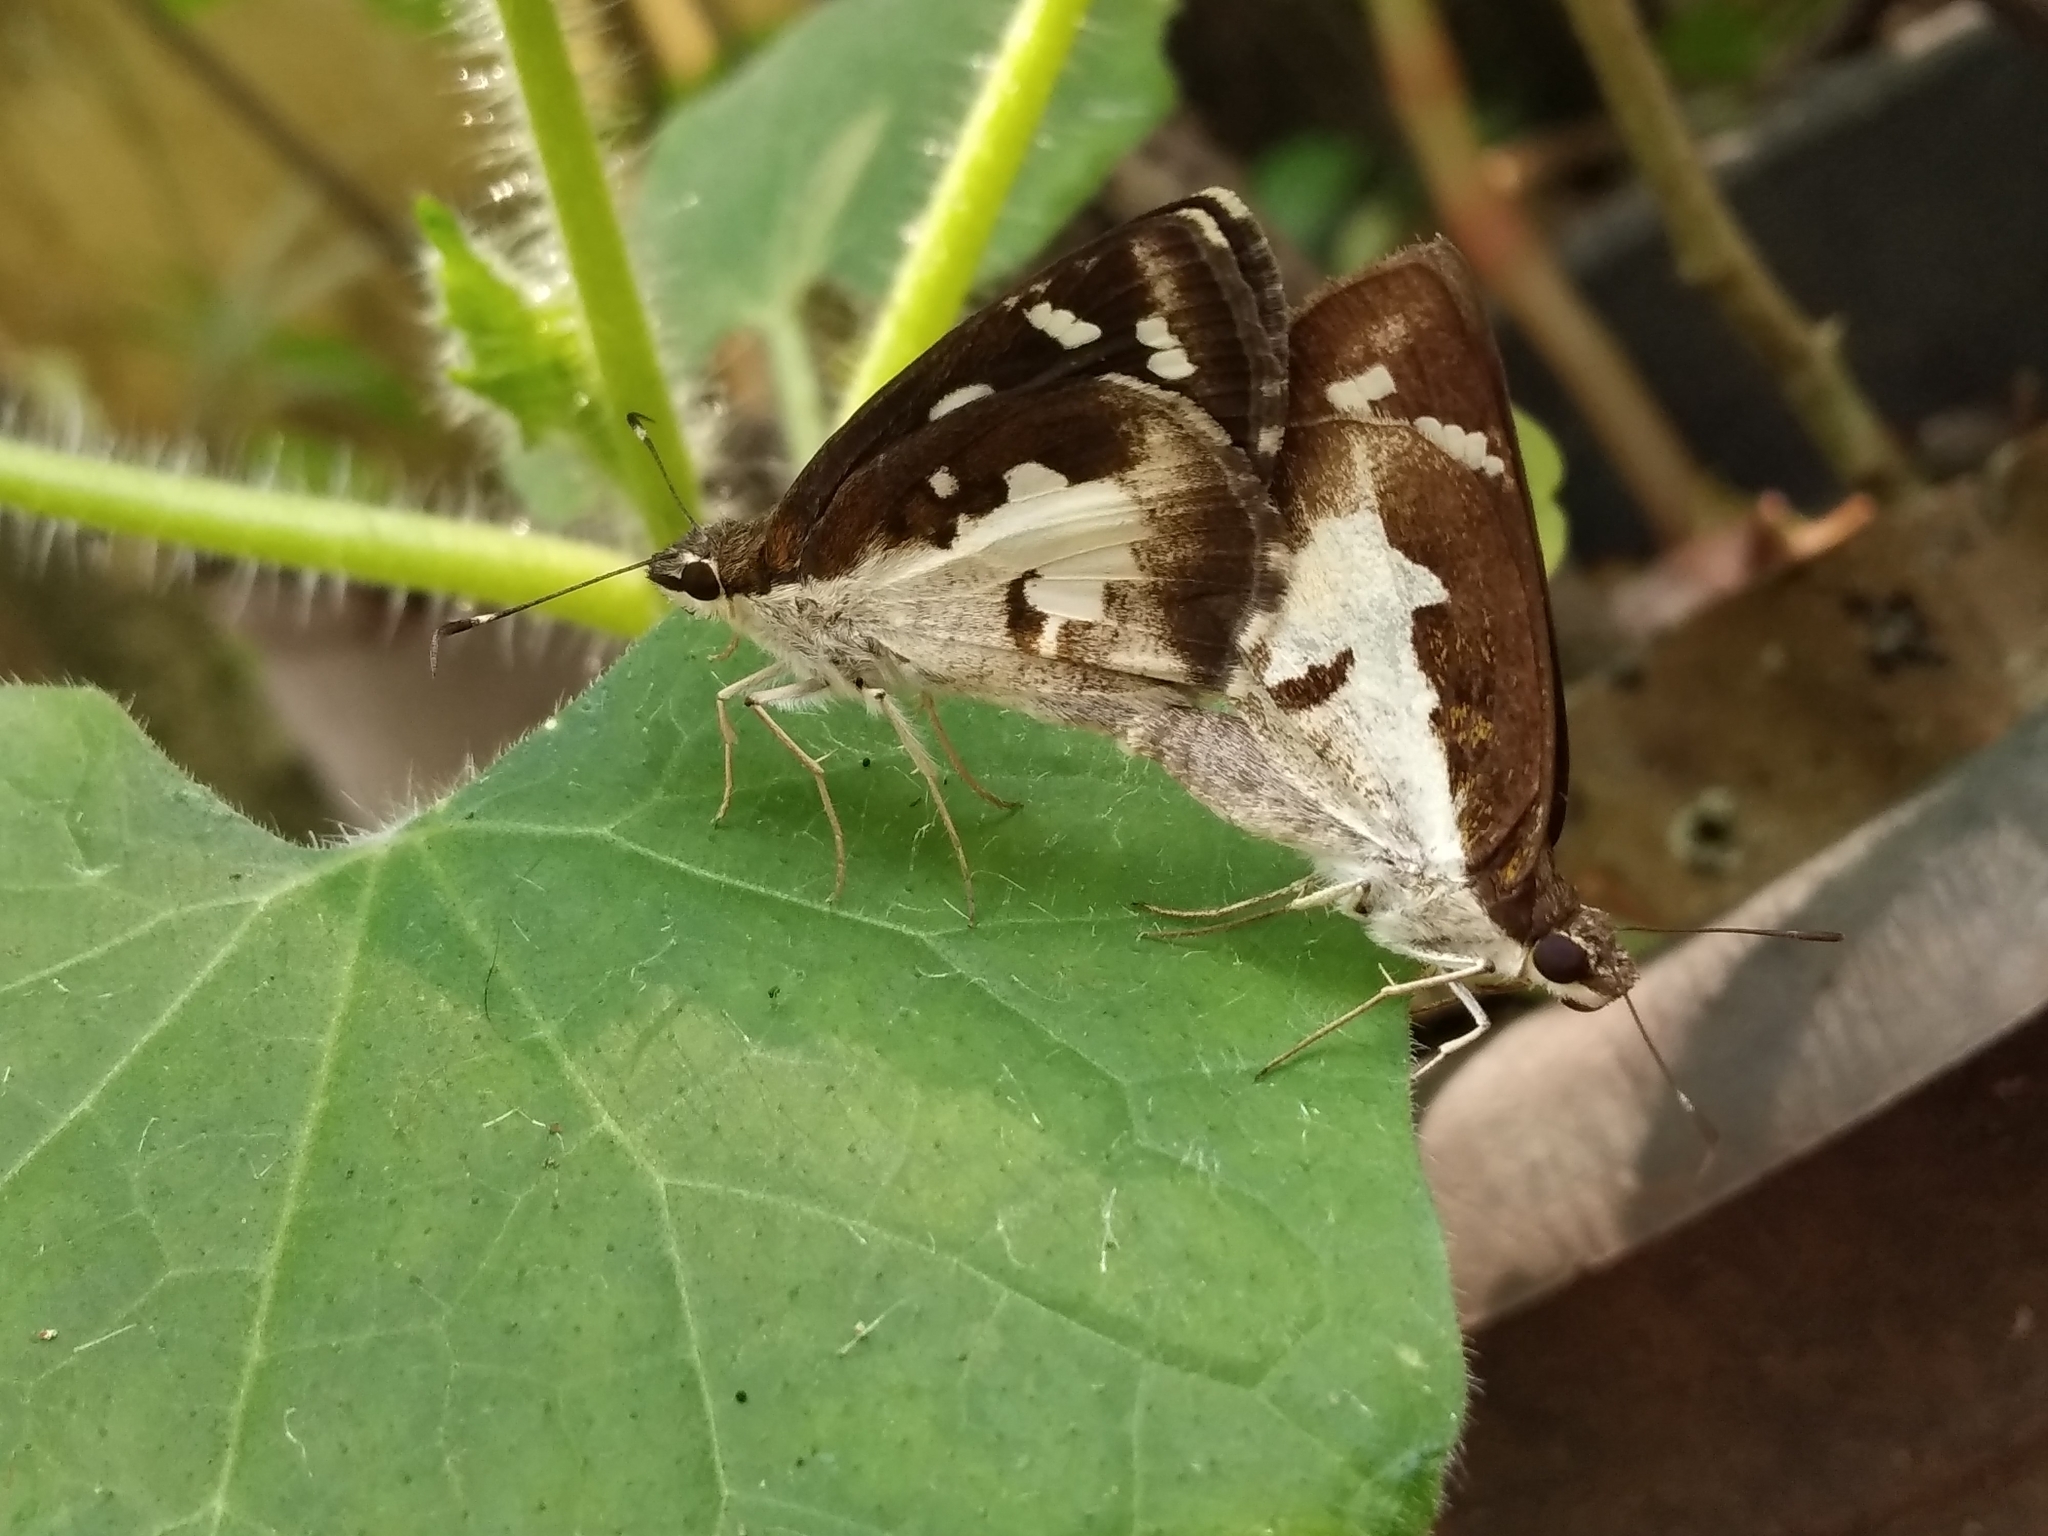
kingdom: Animalia
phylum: Arthropoda
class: Insecta
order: Lepidoptera
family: Hesperiidae
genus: Udaspes
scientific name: Udaspes folus
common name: Grass demon
